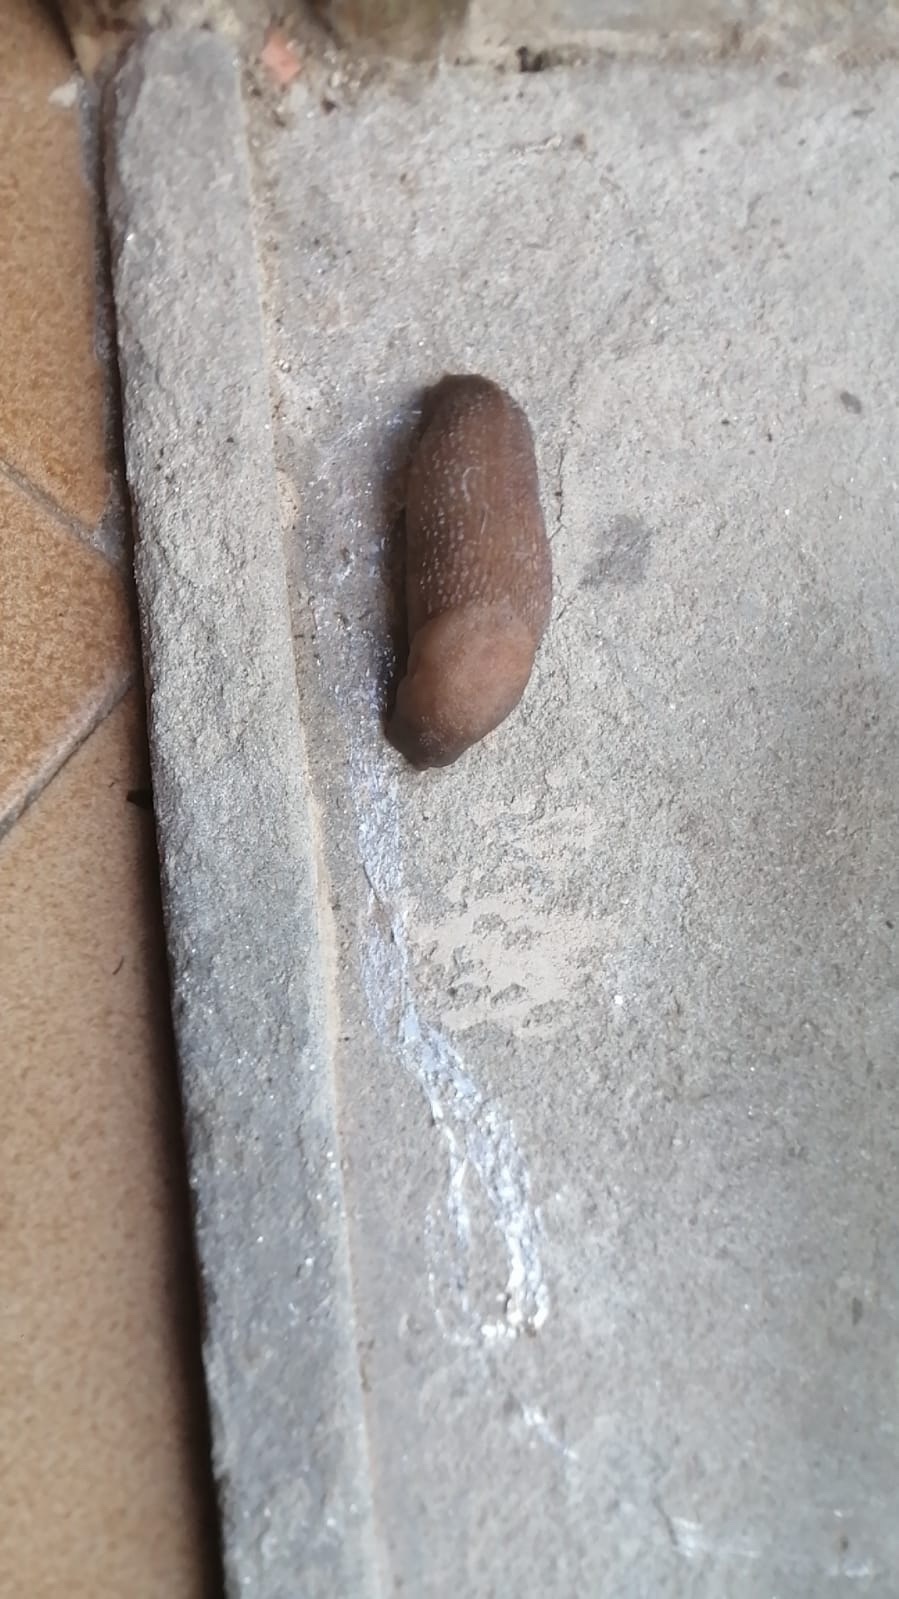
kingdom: Animalia
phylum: Mollusca
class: Gastropoda
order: Stylommatophora
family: Limacidae
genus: Limax
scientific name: Limax corsicus
